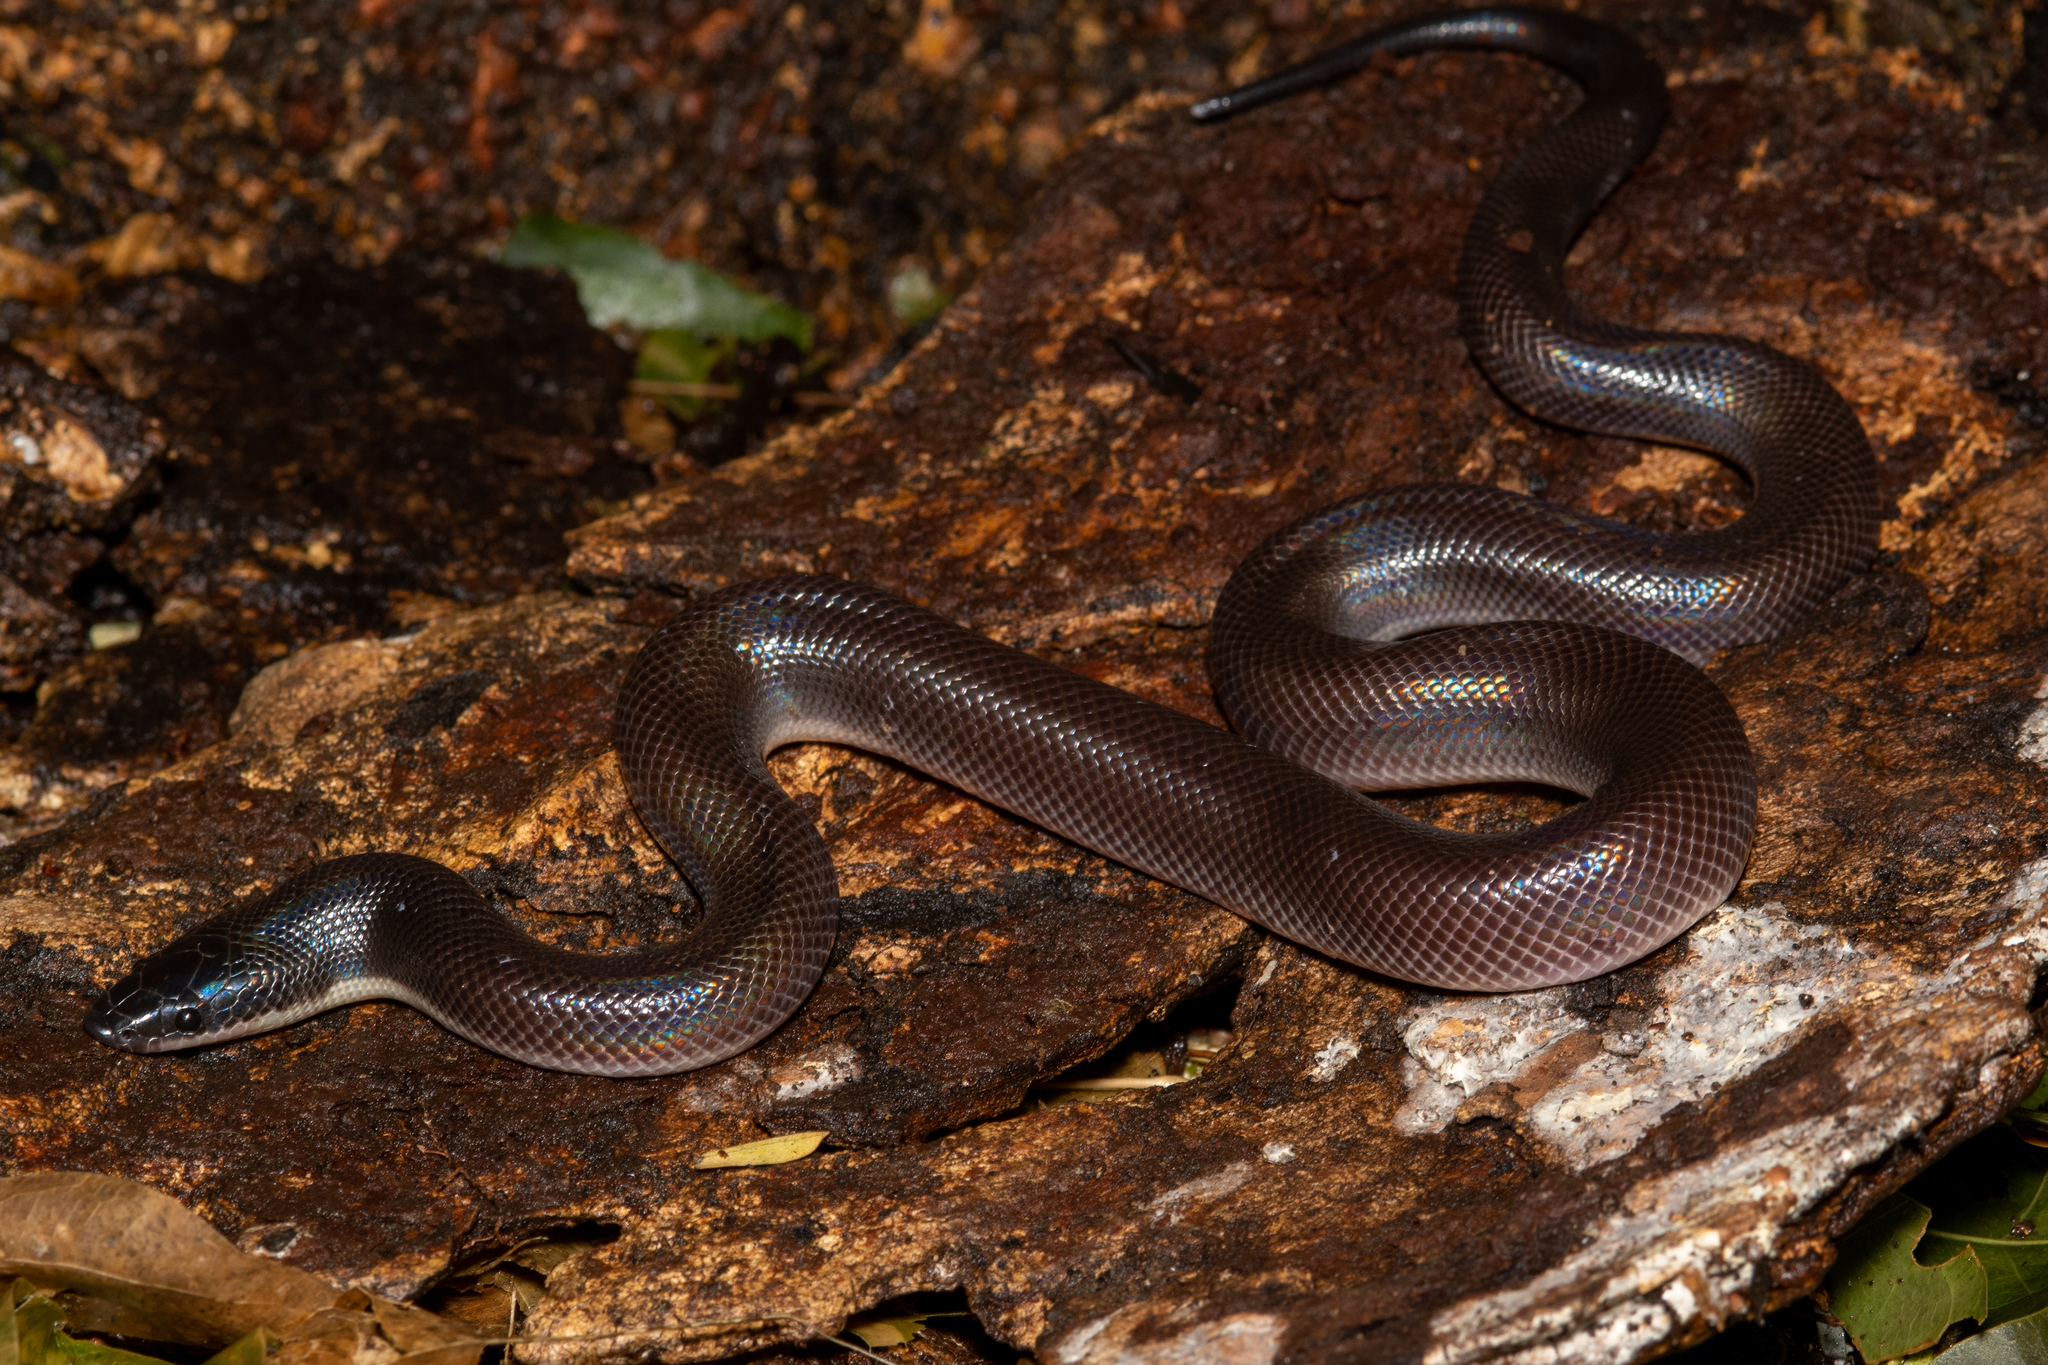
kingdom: Animalia
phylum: Chordata
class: Squamata
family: Loxocemidae
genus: Loxocemus
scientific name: Loxocemus bicolor
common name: Mexican burrowing python
